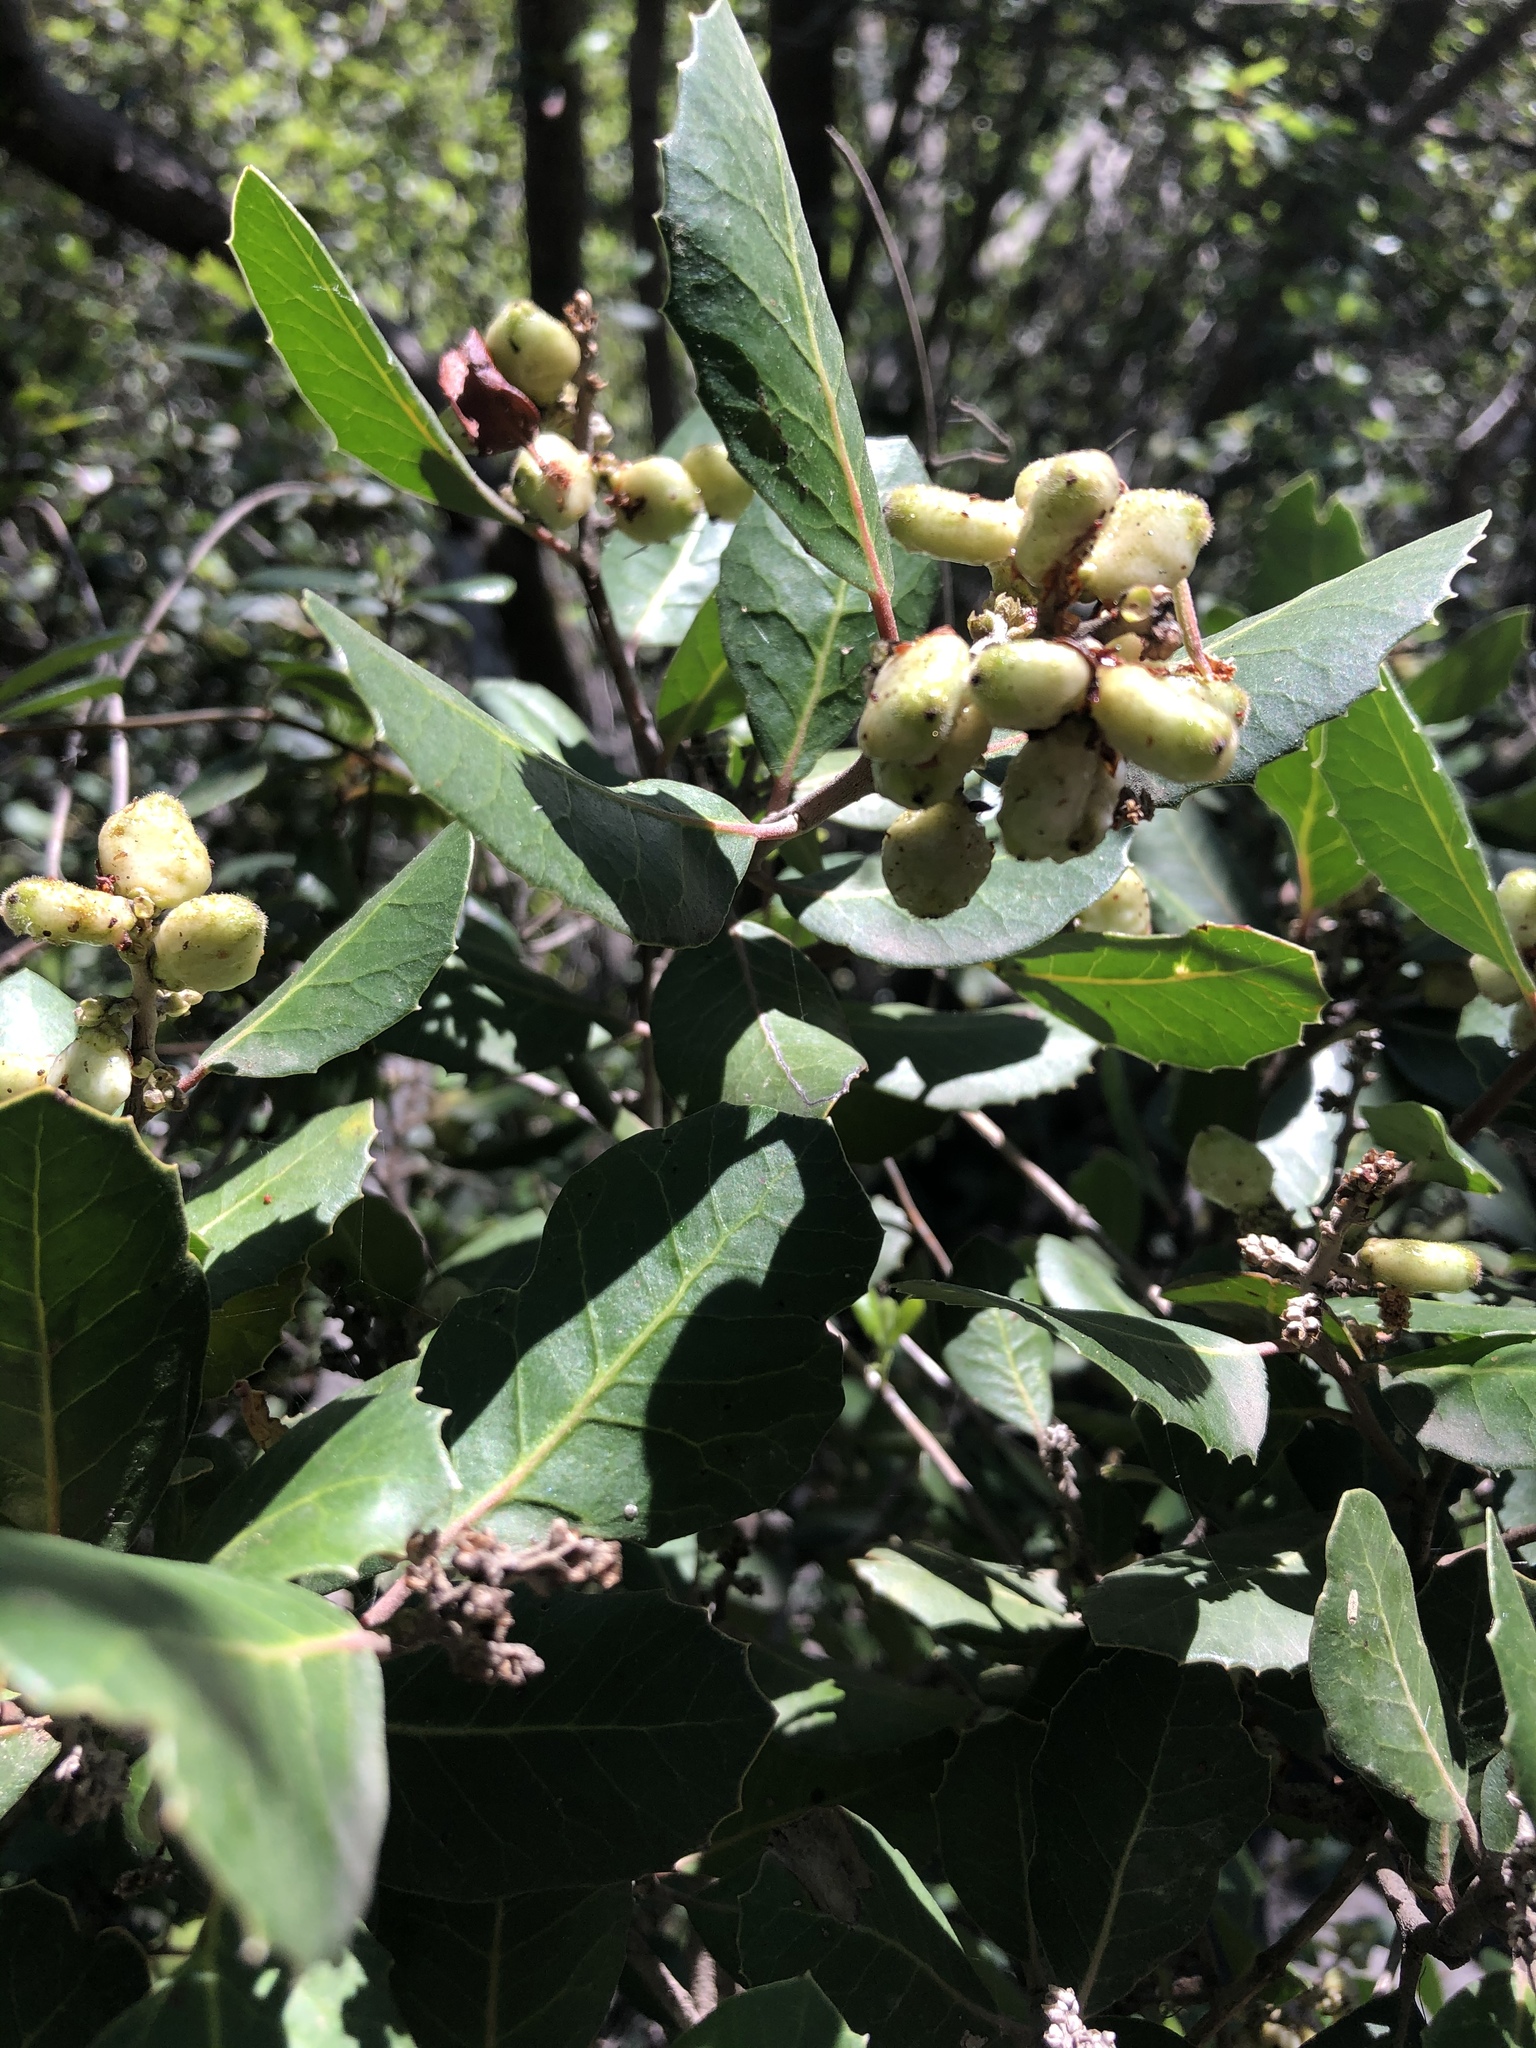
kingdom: Plantae
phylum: Tracheophyta
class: Magnoliopsida
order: Sapindales
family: Anacardiaceae
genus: Rhus
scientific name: Rhus integrifolia
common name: Lemonade sumac
